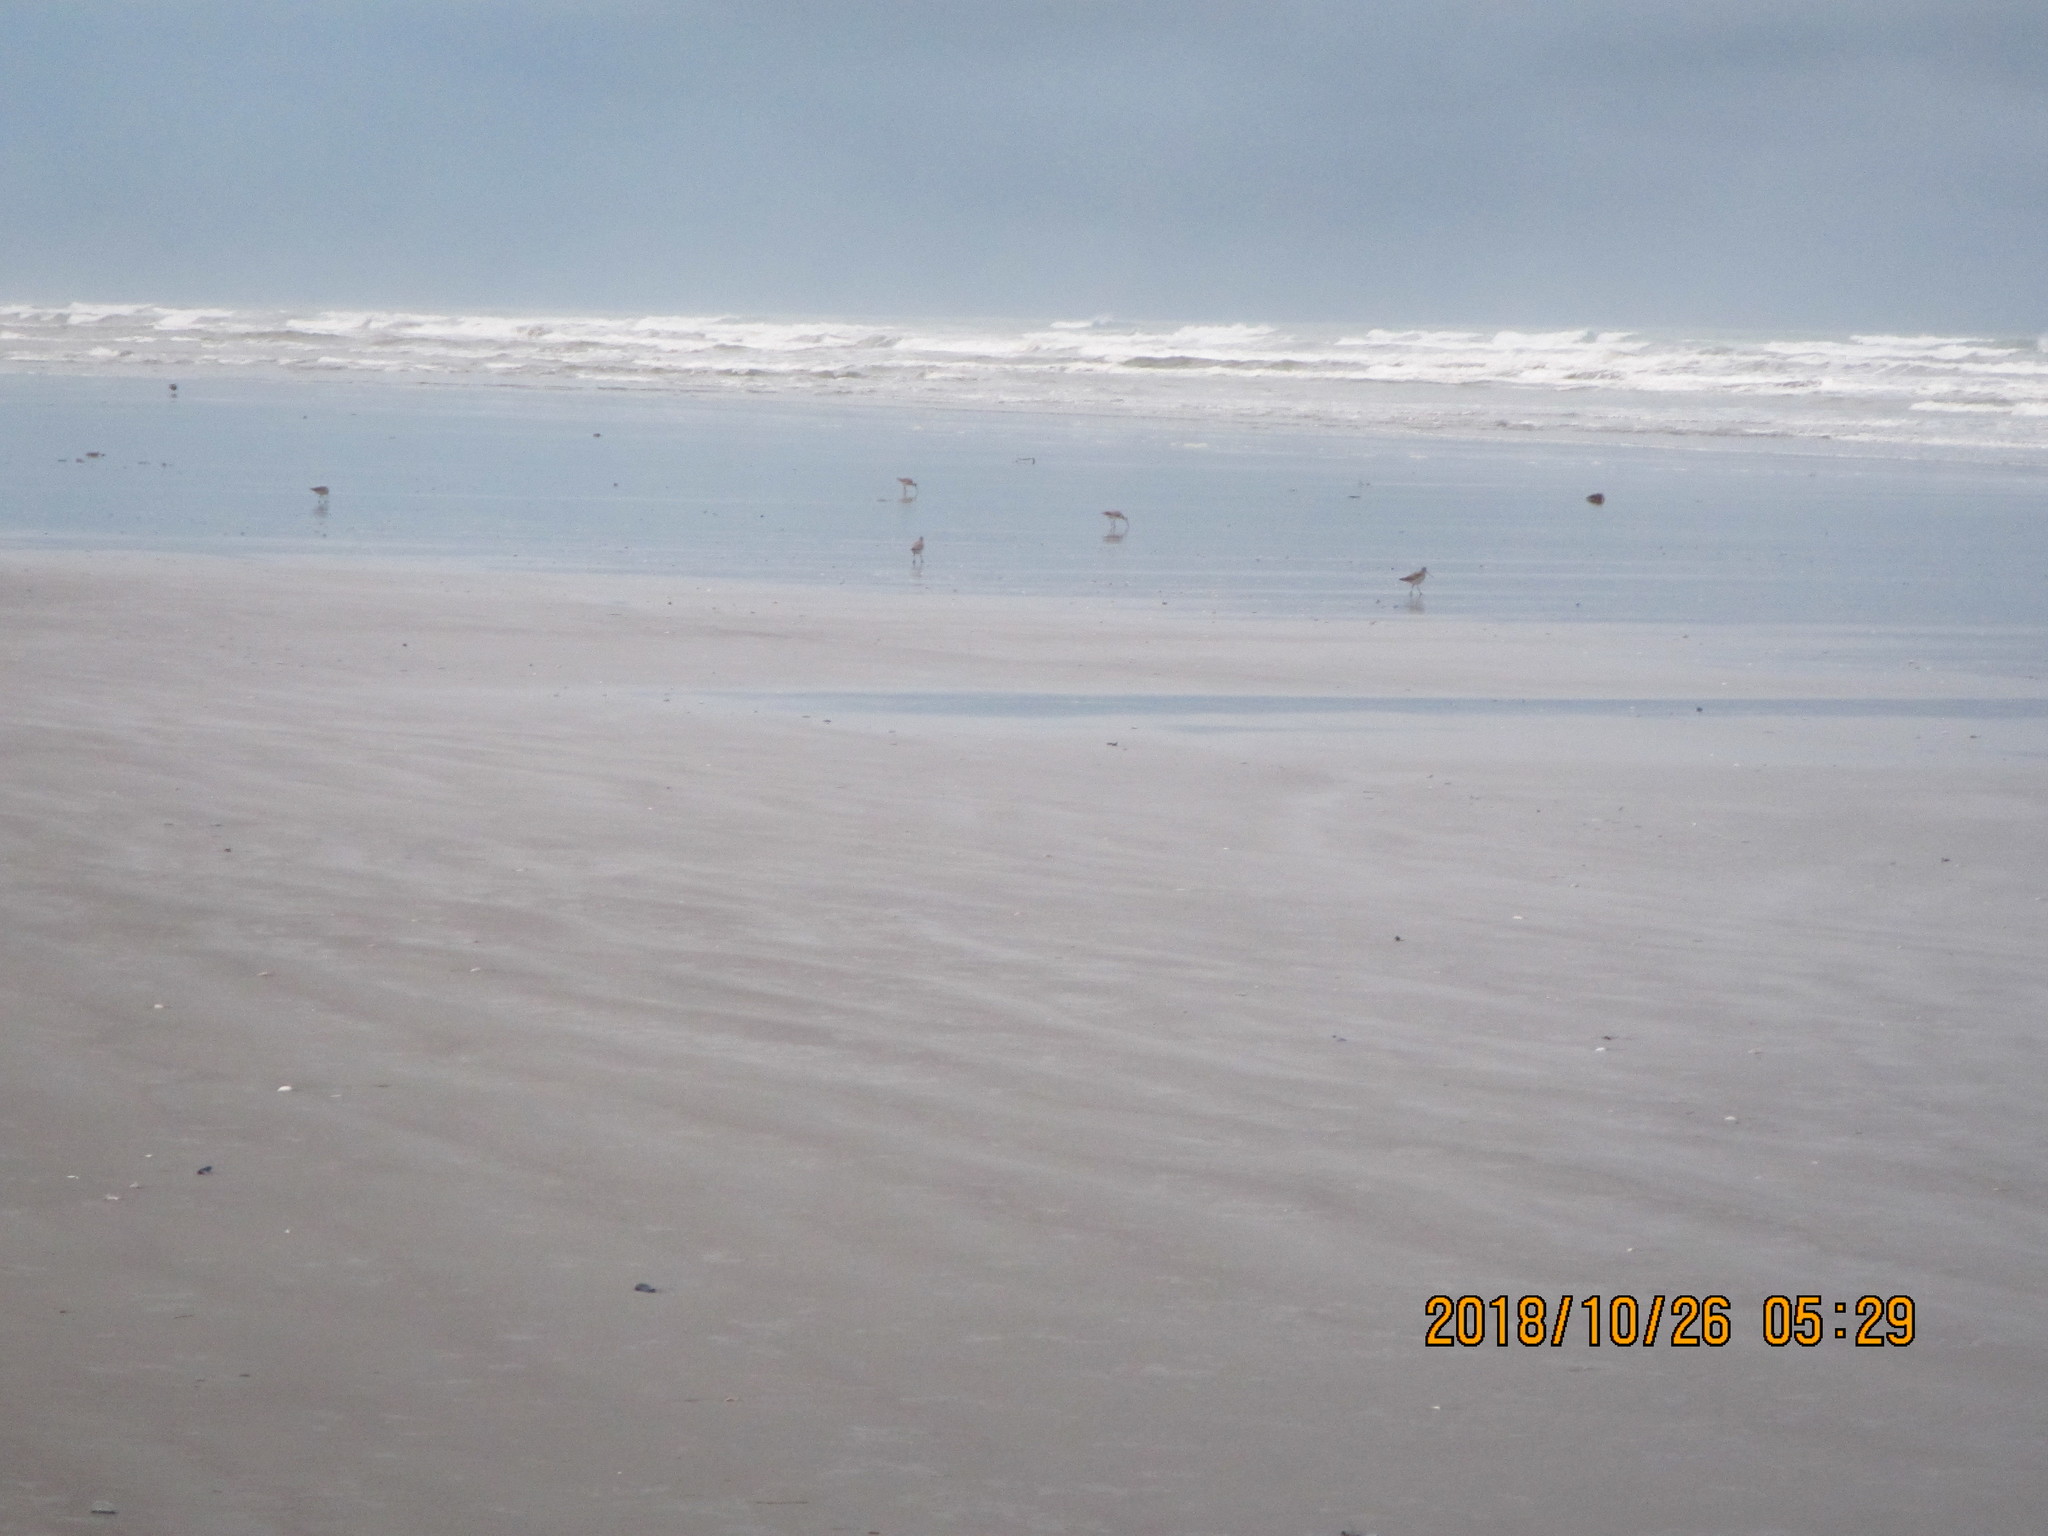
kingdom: Animalia
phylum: Chordata
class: Aves
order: Charadriiformes
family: Scolopacidae
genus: Limosa
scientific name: Limosa lapponica
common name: Bar-tailed godwit
